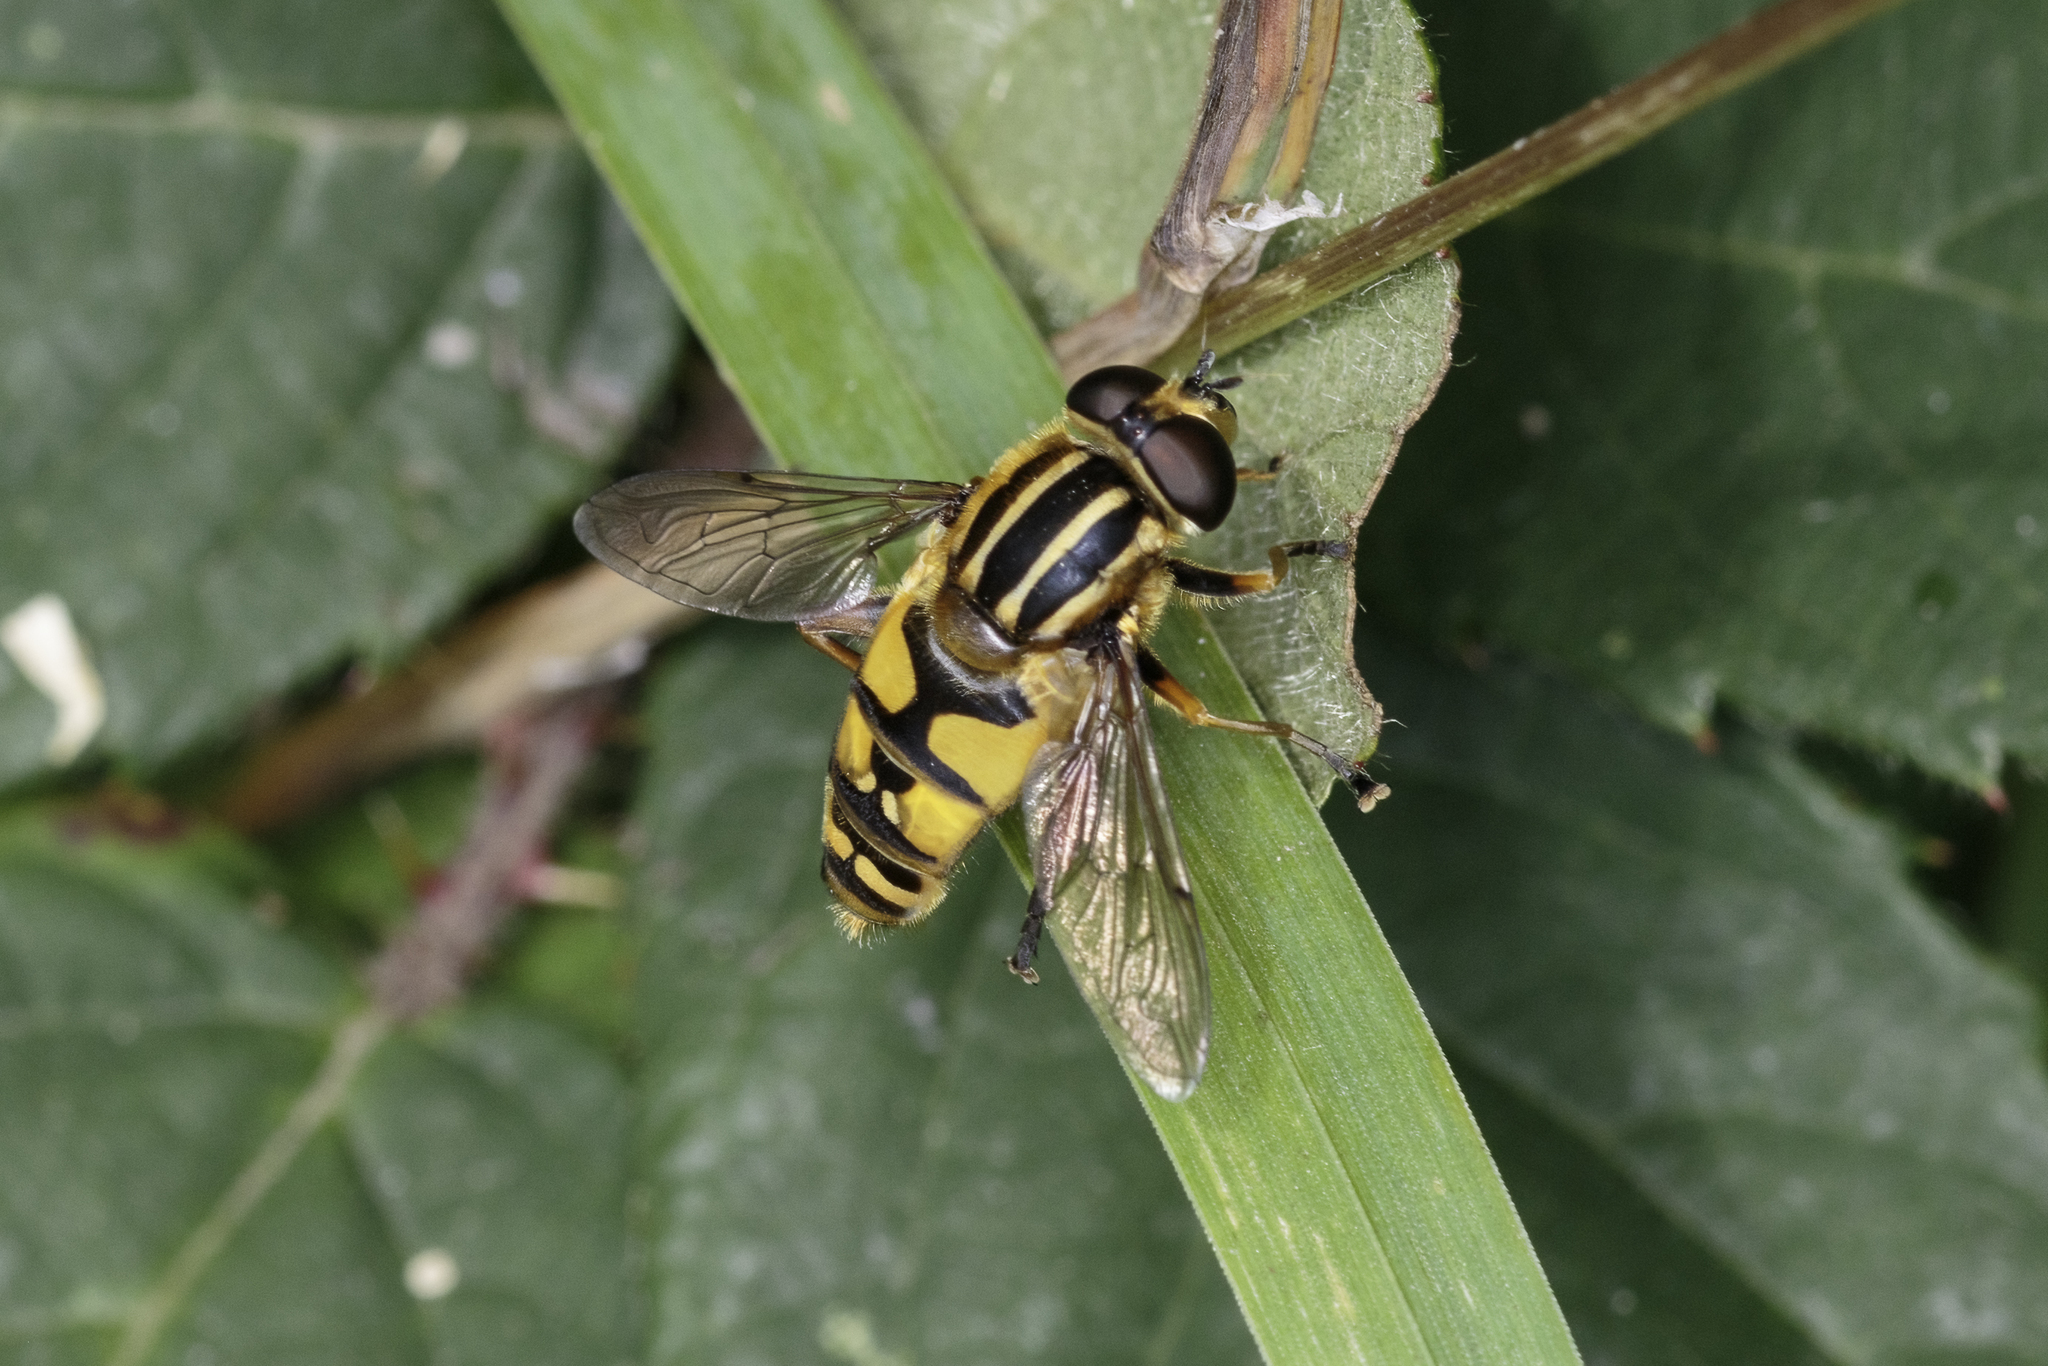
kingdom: Animalia
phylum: Arthropoda
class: Insecta
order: Diptera
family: Syrphidae
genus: Helophilus
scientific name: Helophilus pendulus
